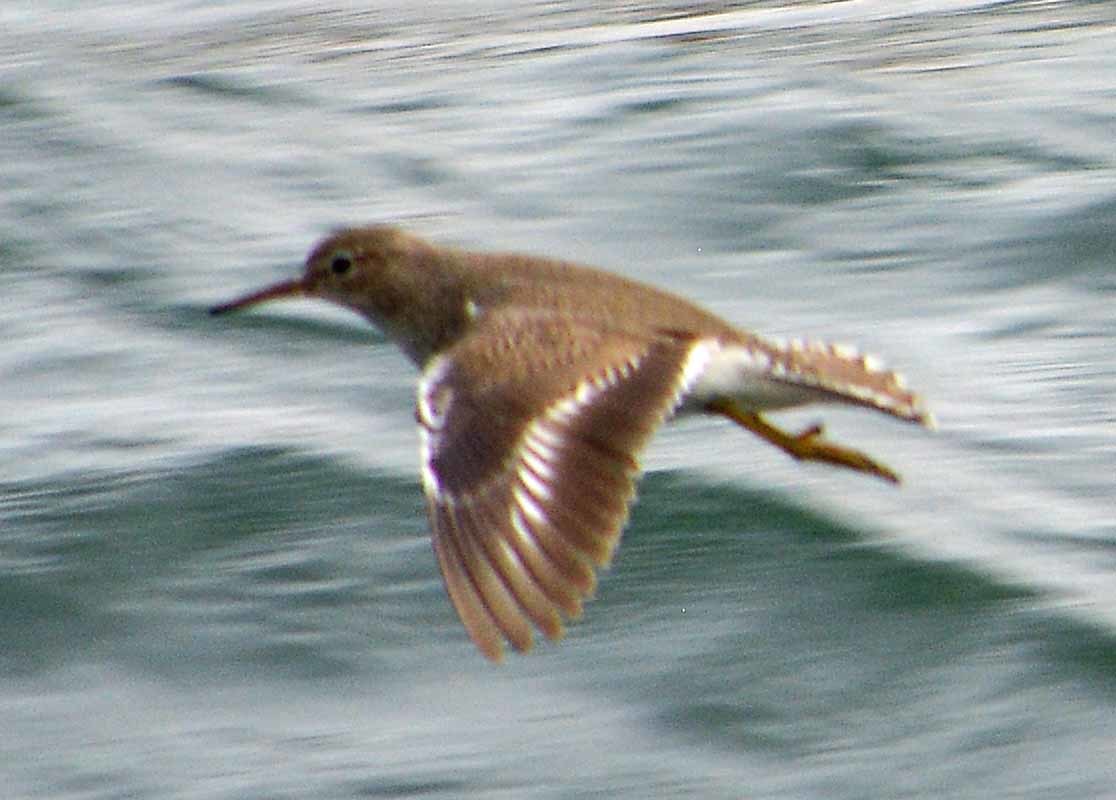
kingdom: Animalia
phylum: Chordata
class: Aves
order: Charadriiformes
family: Scolopacidae
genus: Actitis
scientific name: Actitis macularius
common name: Spotted sandpiper
